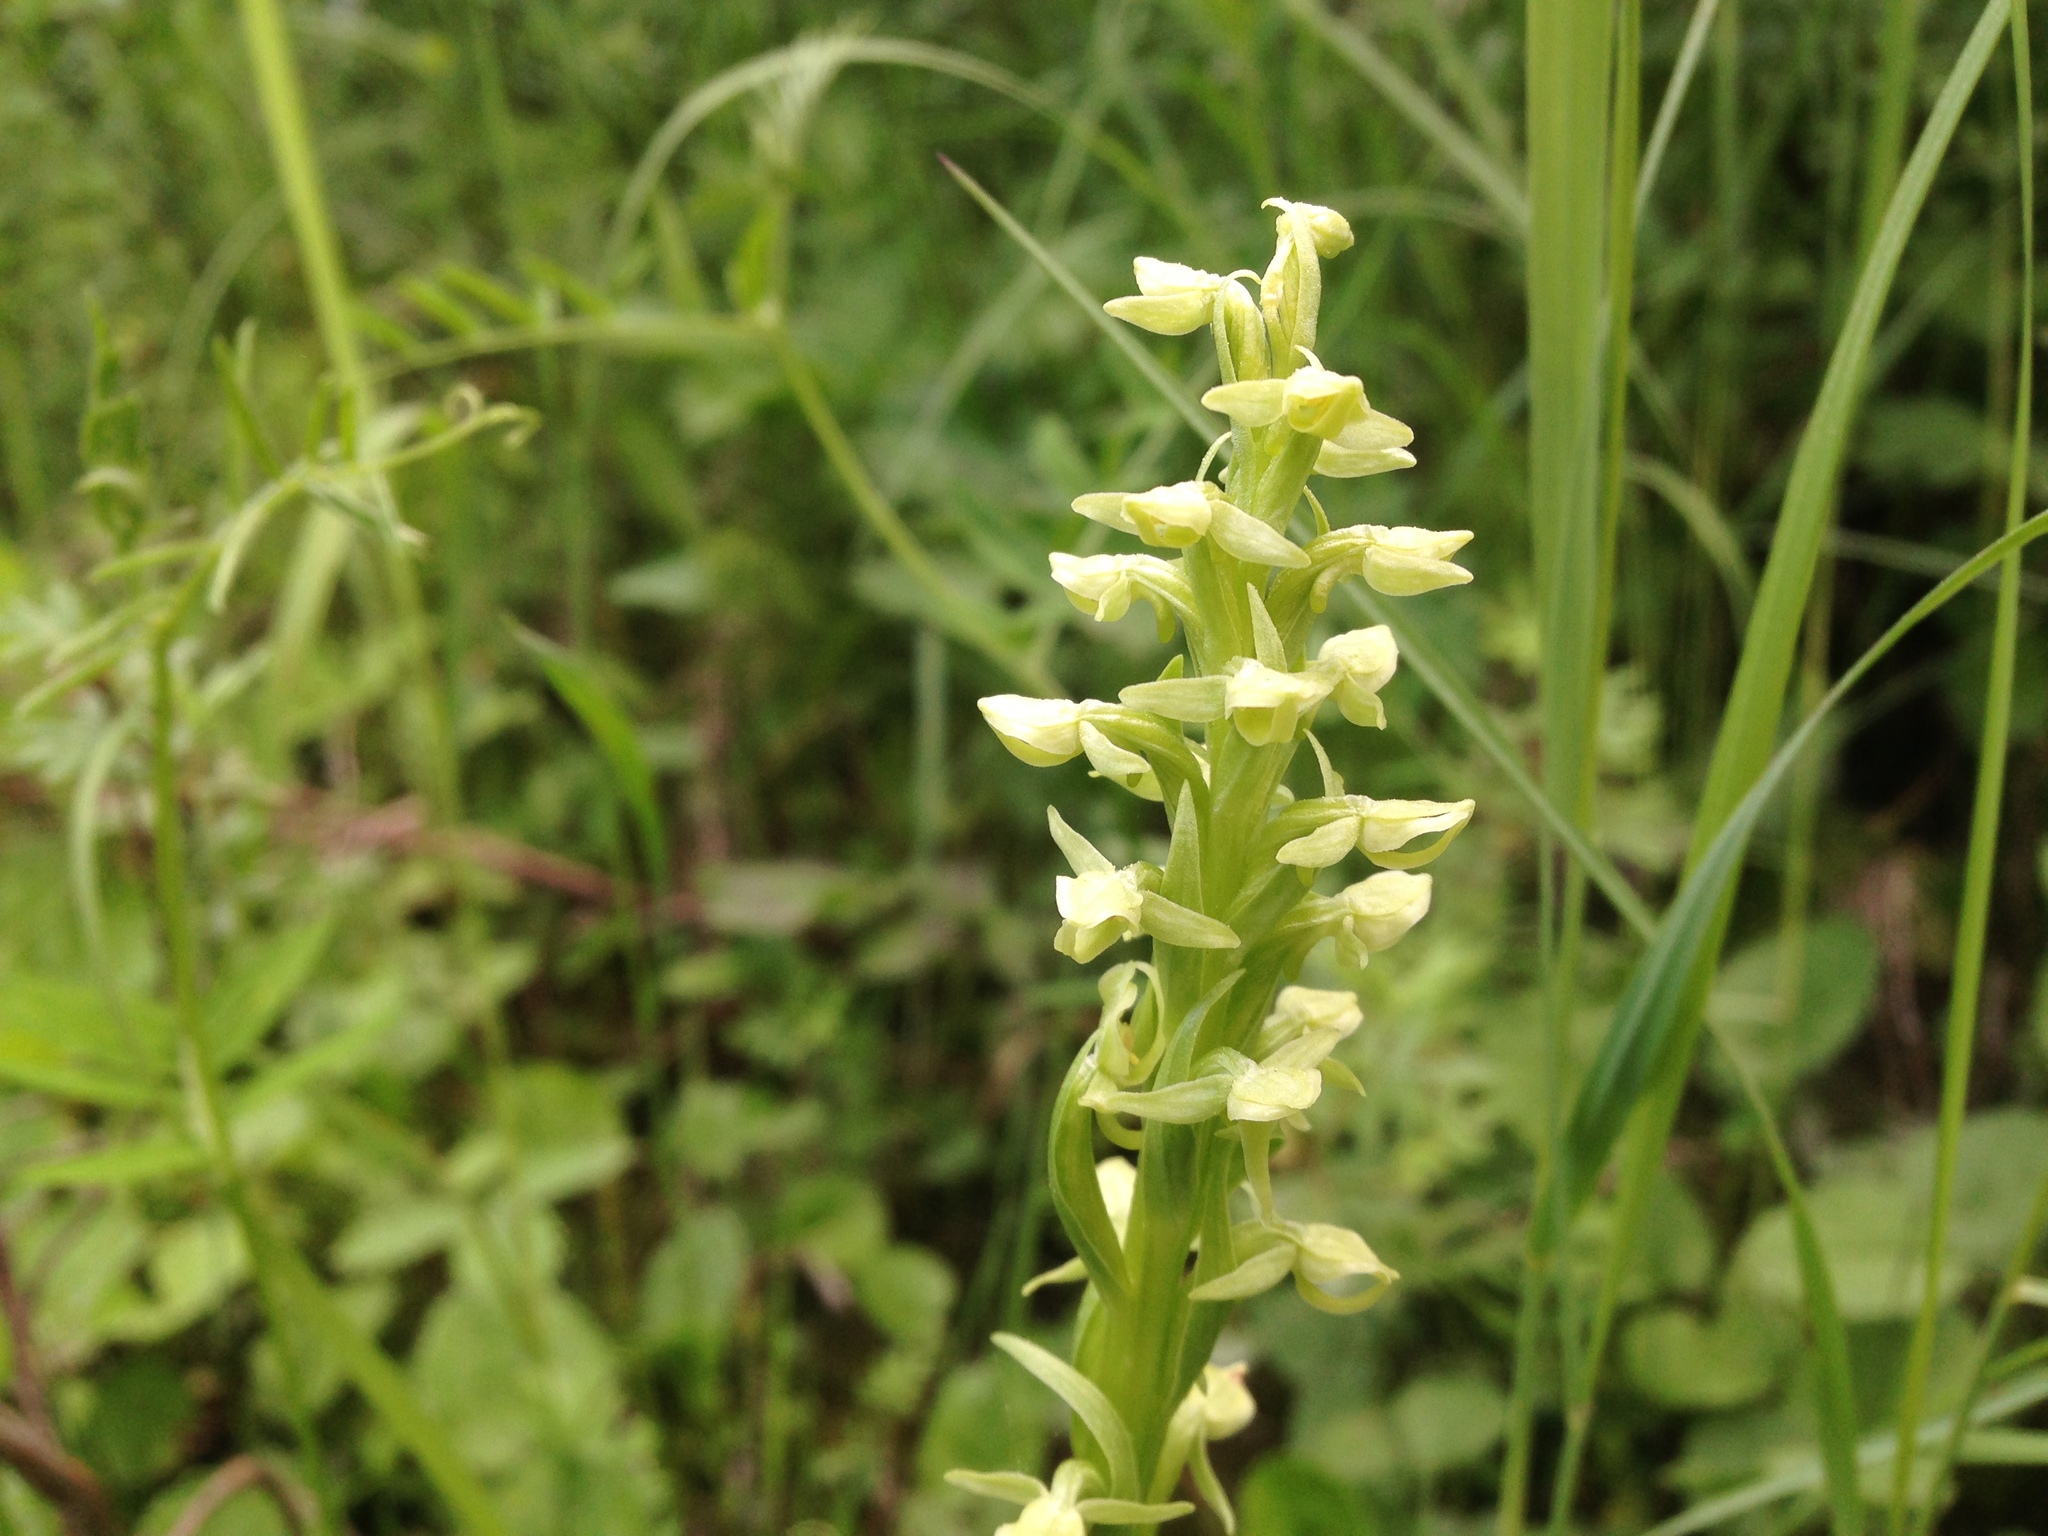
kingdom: Plantae
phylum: Tracheophyta
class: Liliopsida
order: Asparagales
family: Orchidaceae
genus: Platanthera
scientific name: Platanthera huronensis
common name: Fragrant green orchid
